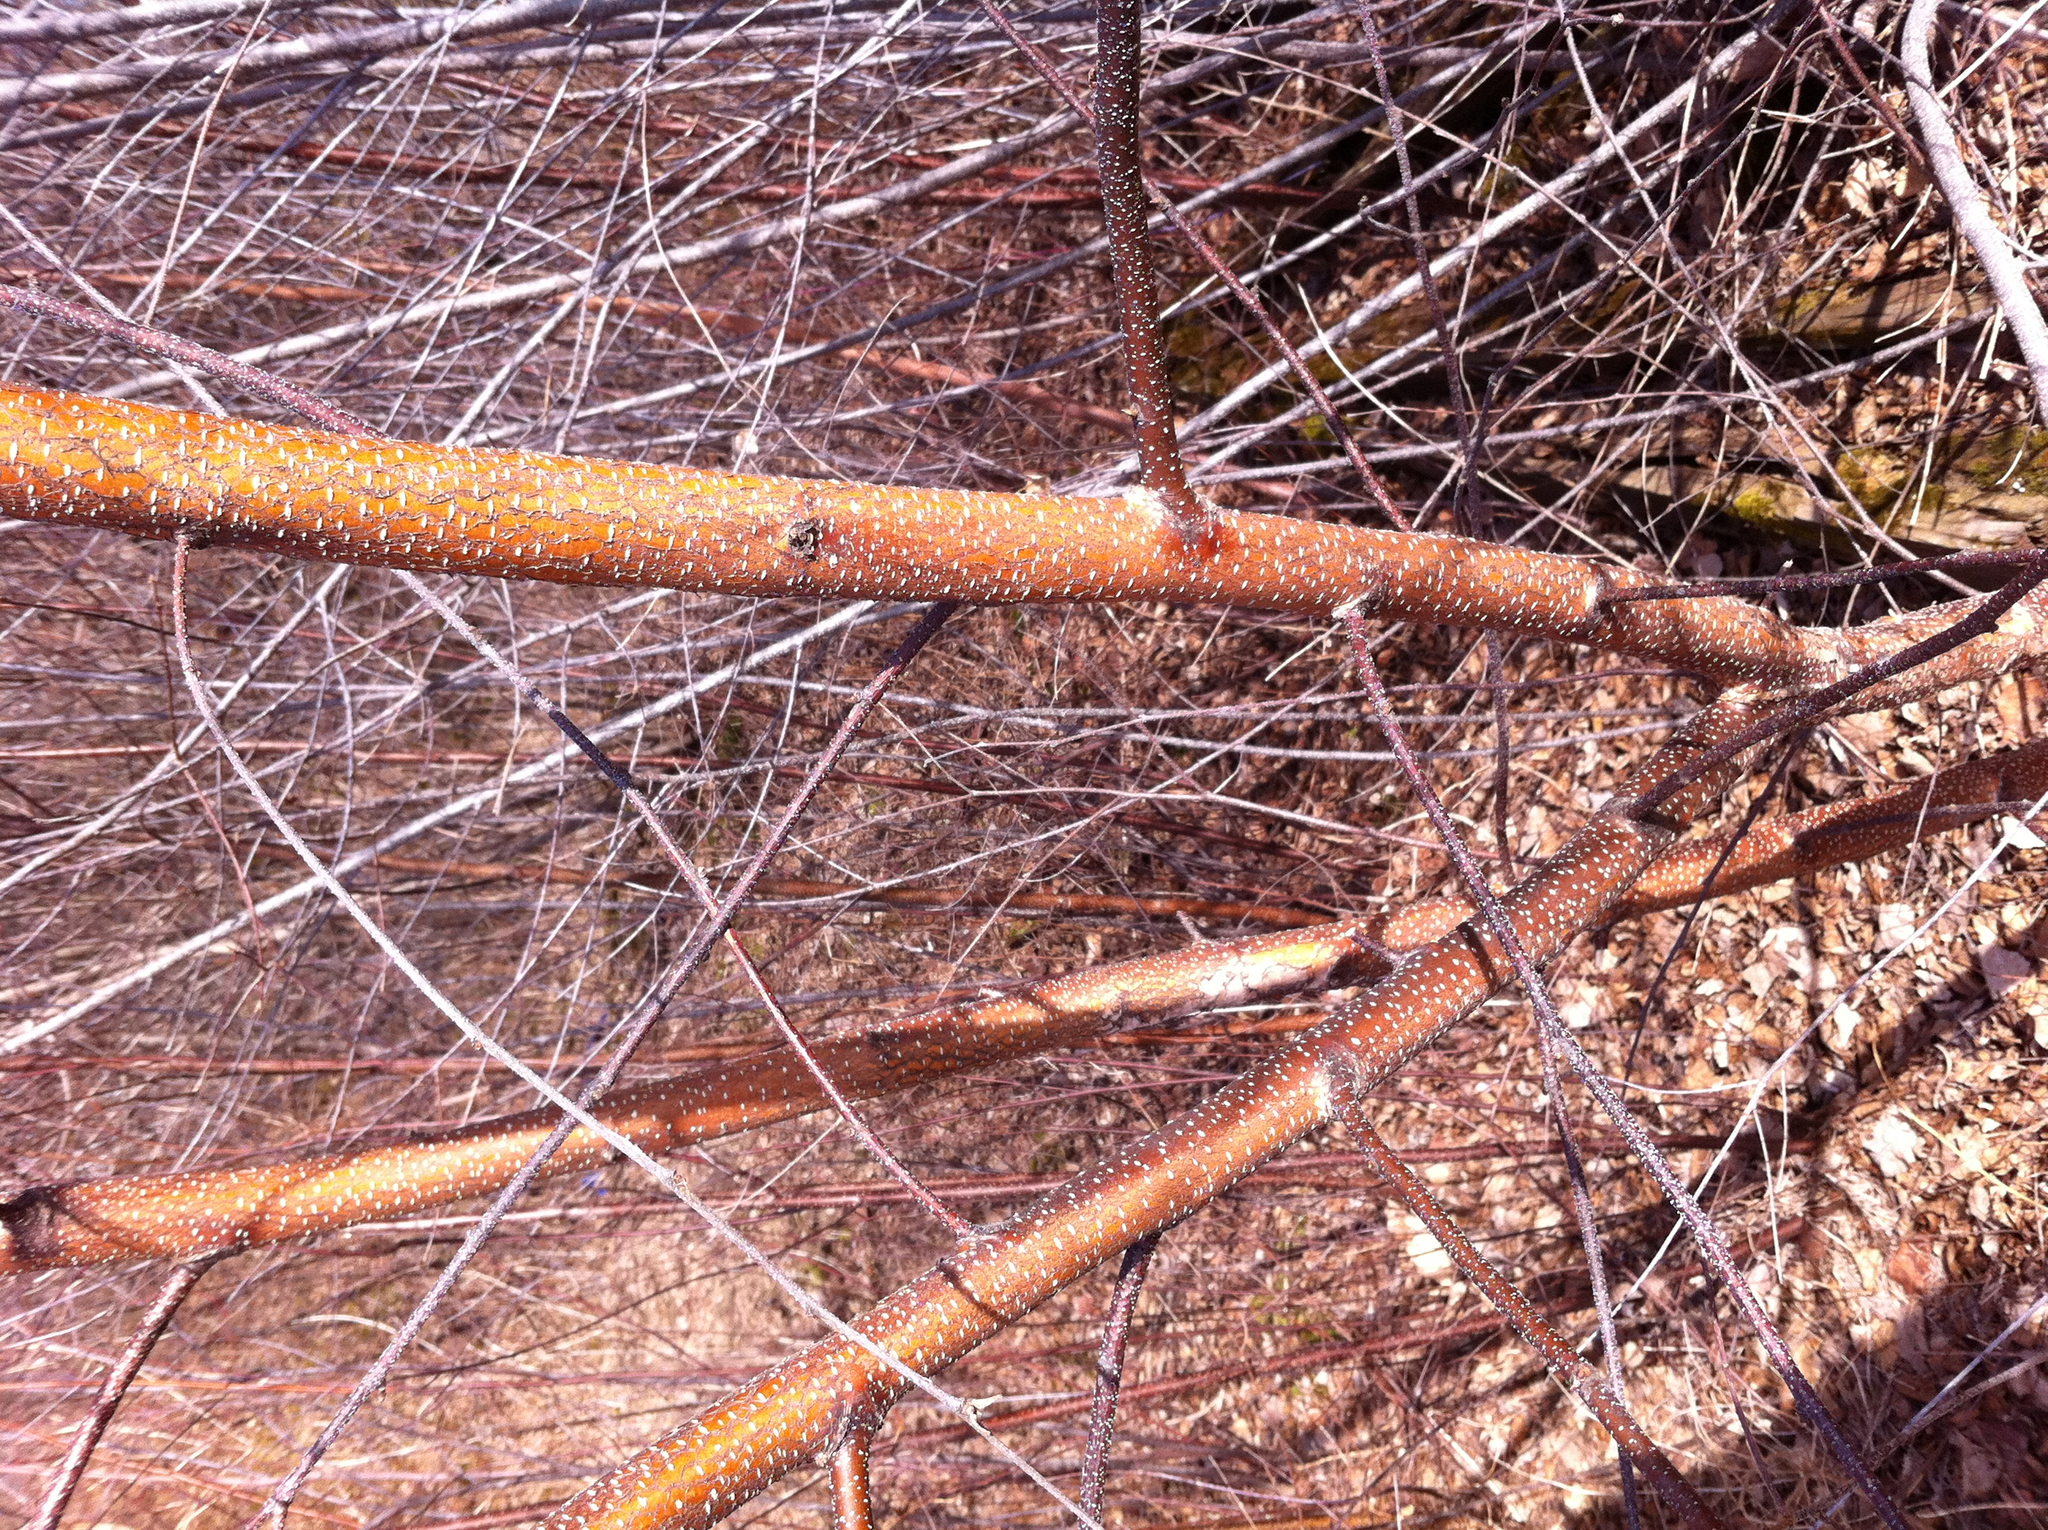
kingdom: Plantae
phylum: Tracheophyta
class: Magnoliopsida
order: Fagales
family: Betulaceae
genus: Alnus
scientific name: Alnus incana
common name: Grey alder
